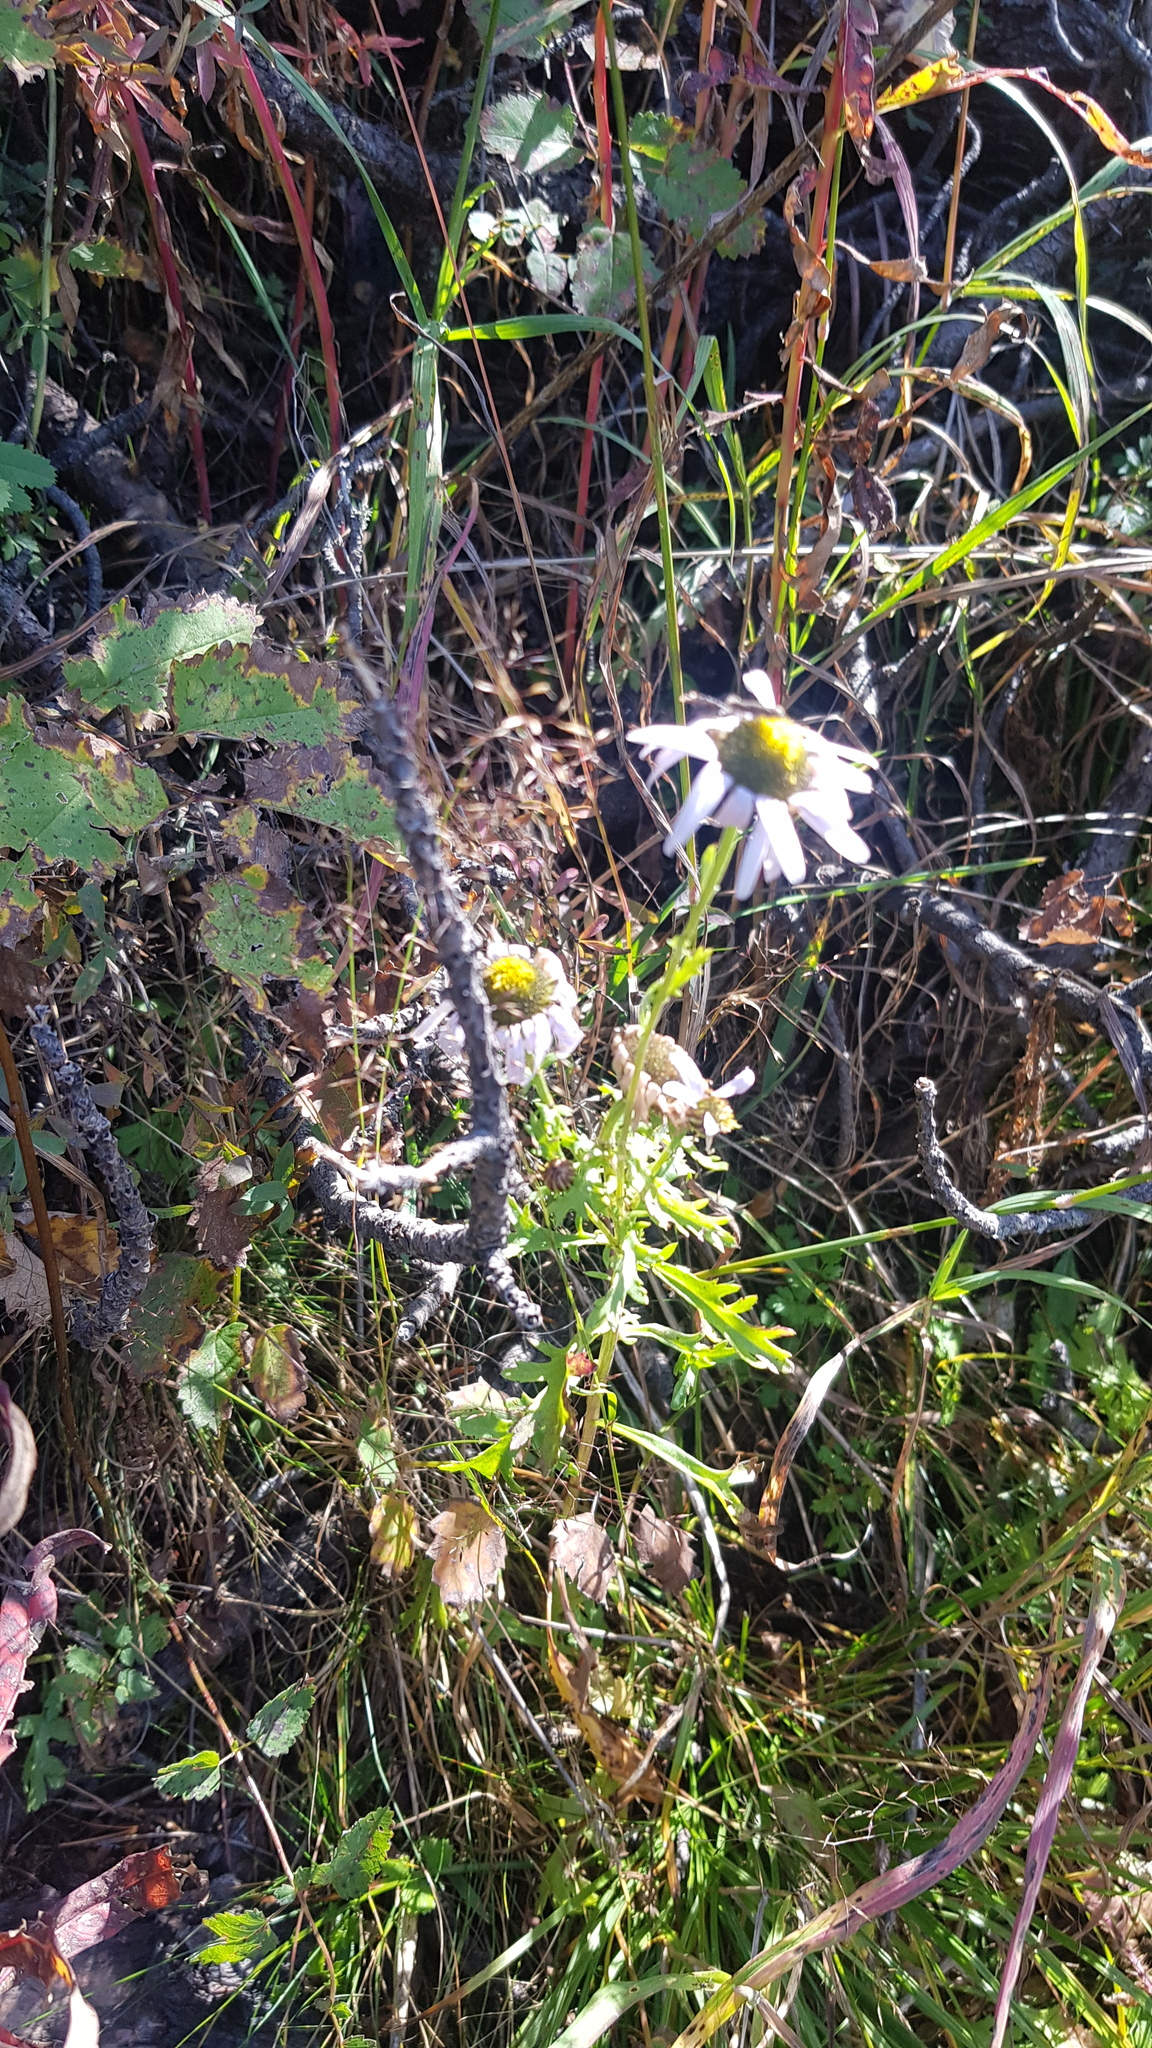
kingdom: Plantae
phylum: Tracheophyta
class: Magnoliopsida
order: Asterales
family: Asteraceae
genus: Chrysanthemum
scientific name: Chrysanthemum zawadzkii
